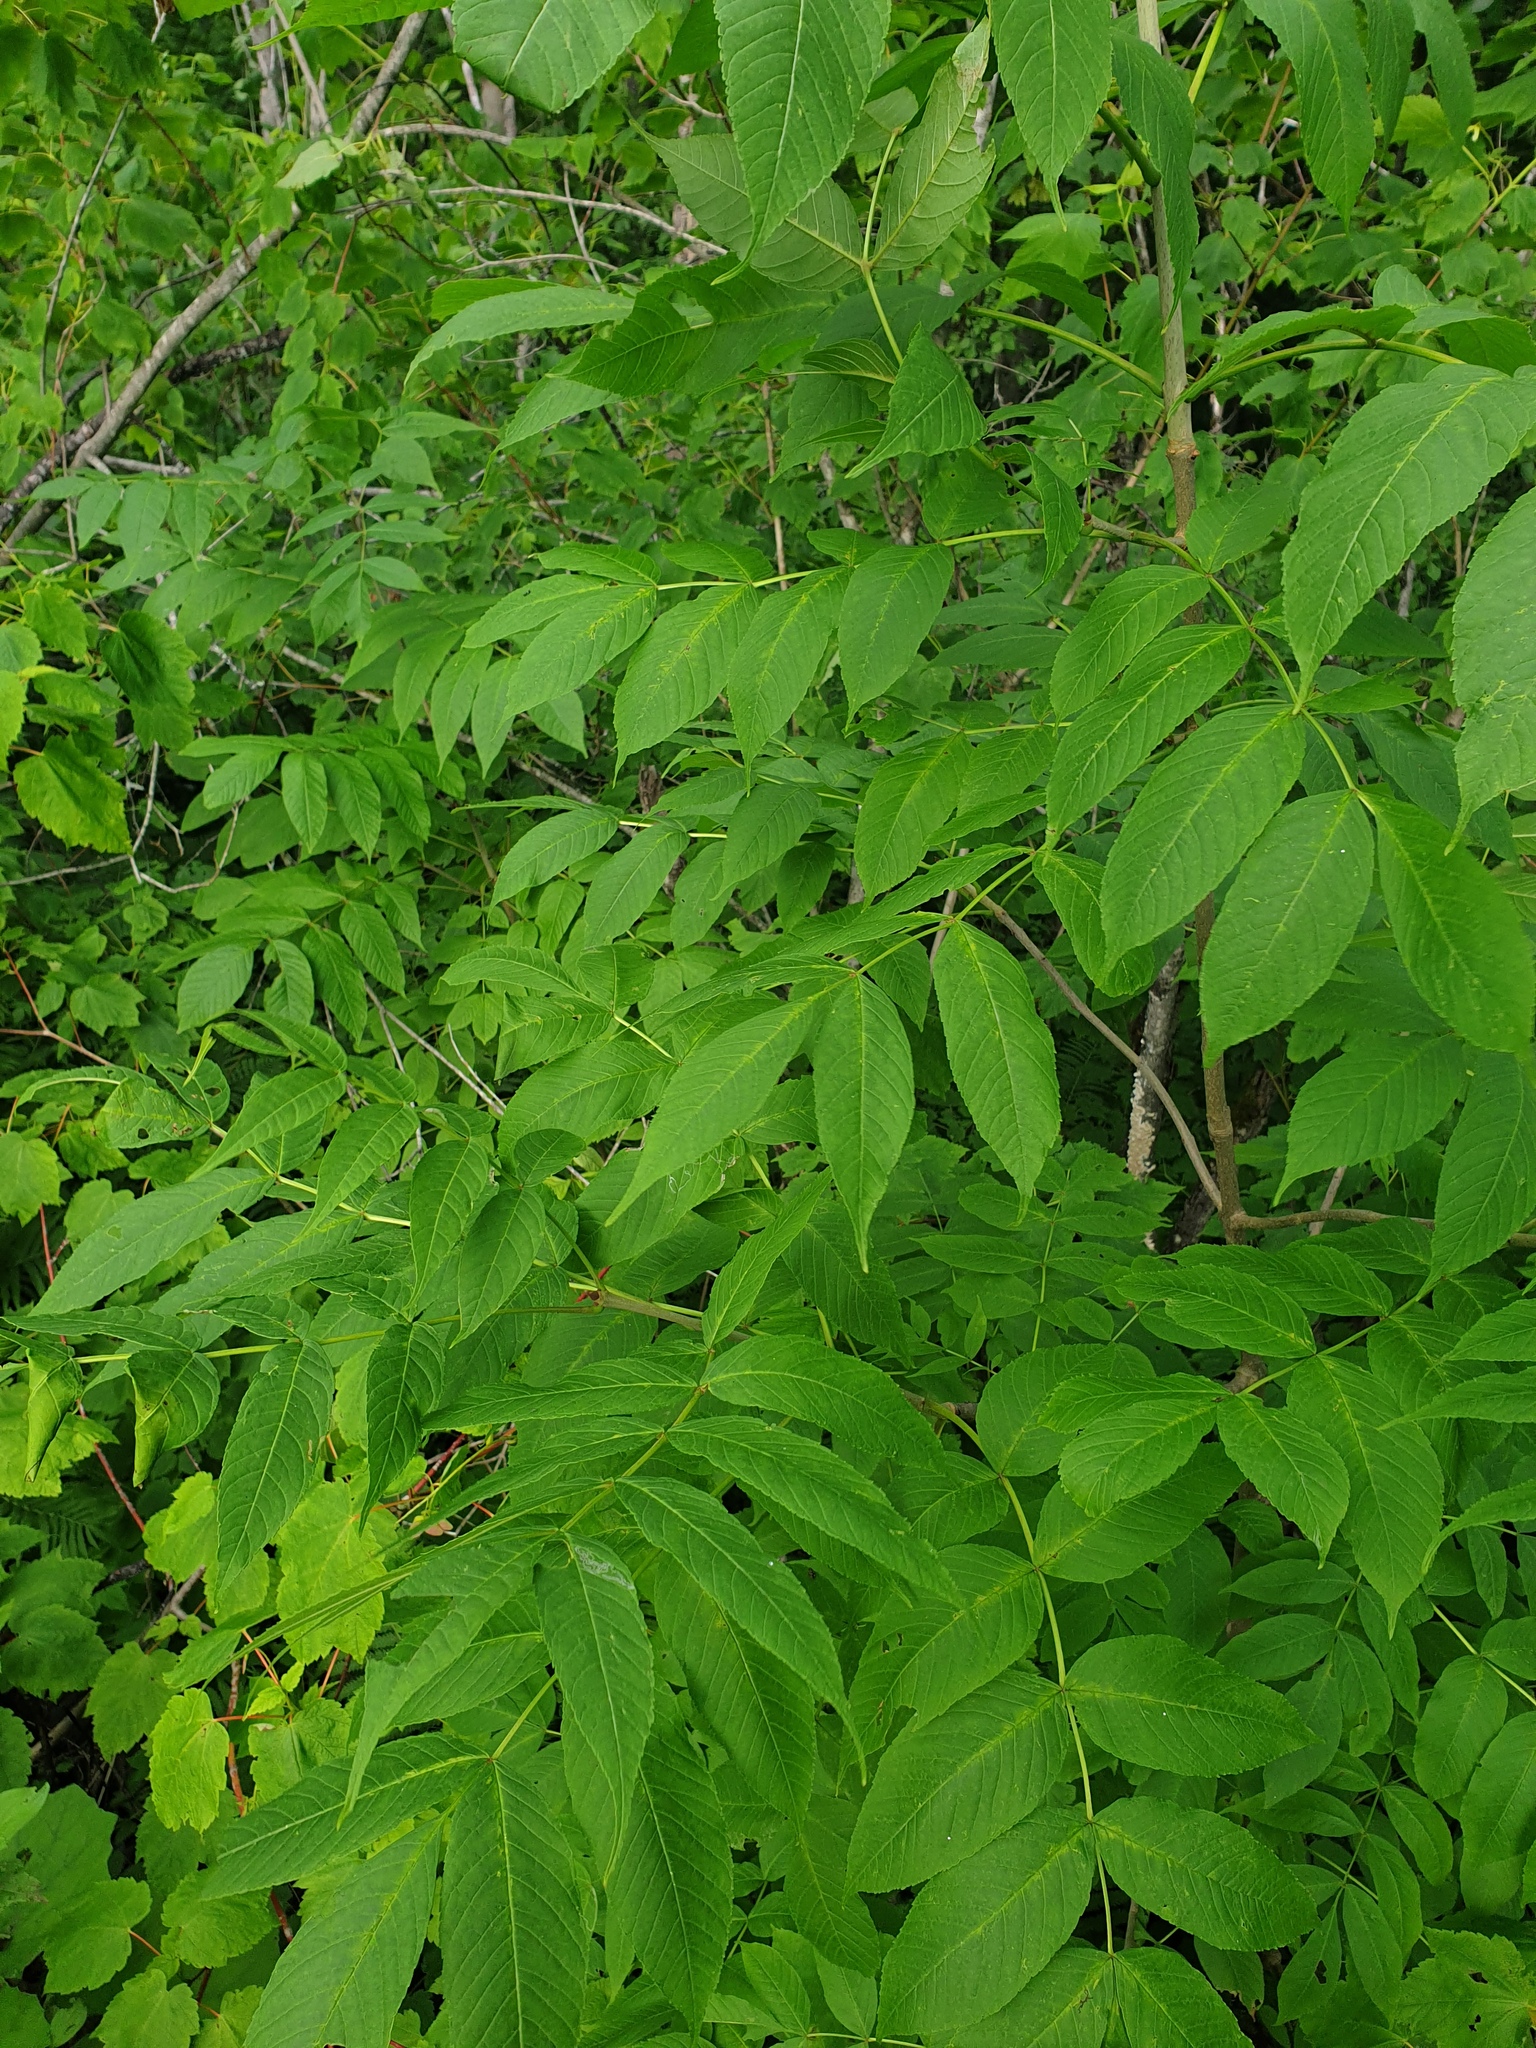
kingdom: Plantae
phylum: Tracheophyta
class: Magnoliopsida
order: Lamiales
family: Oleaceae
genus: Fraxinus
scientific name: Fraxinus nigra
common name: Black ash
